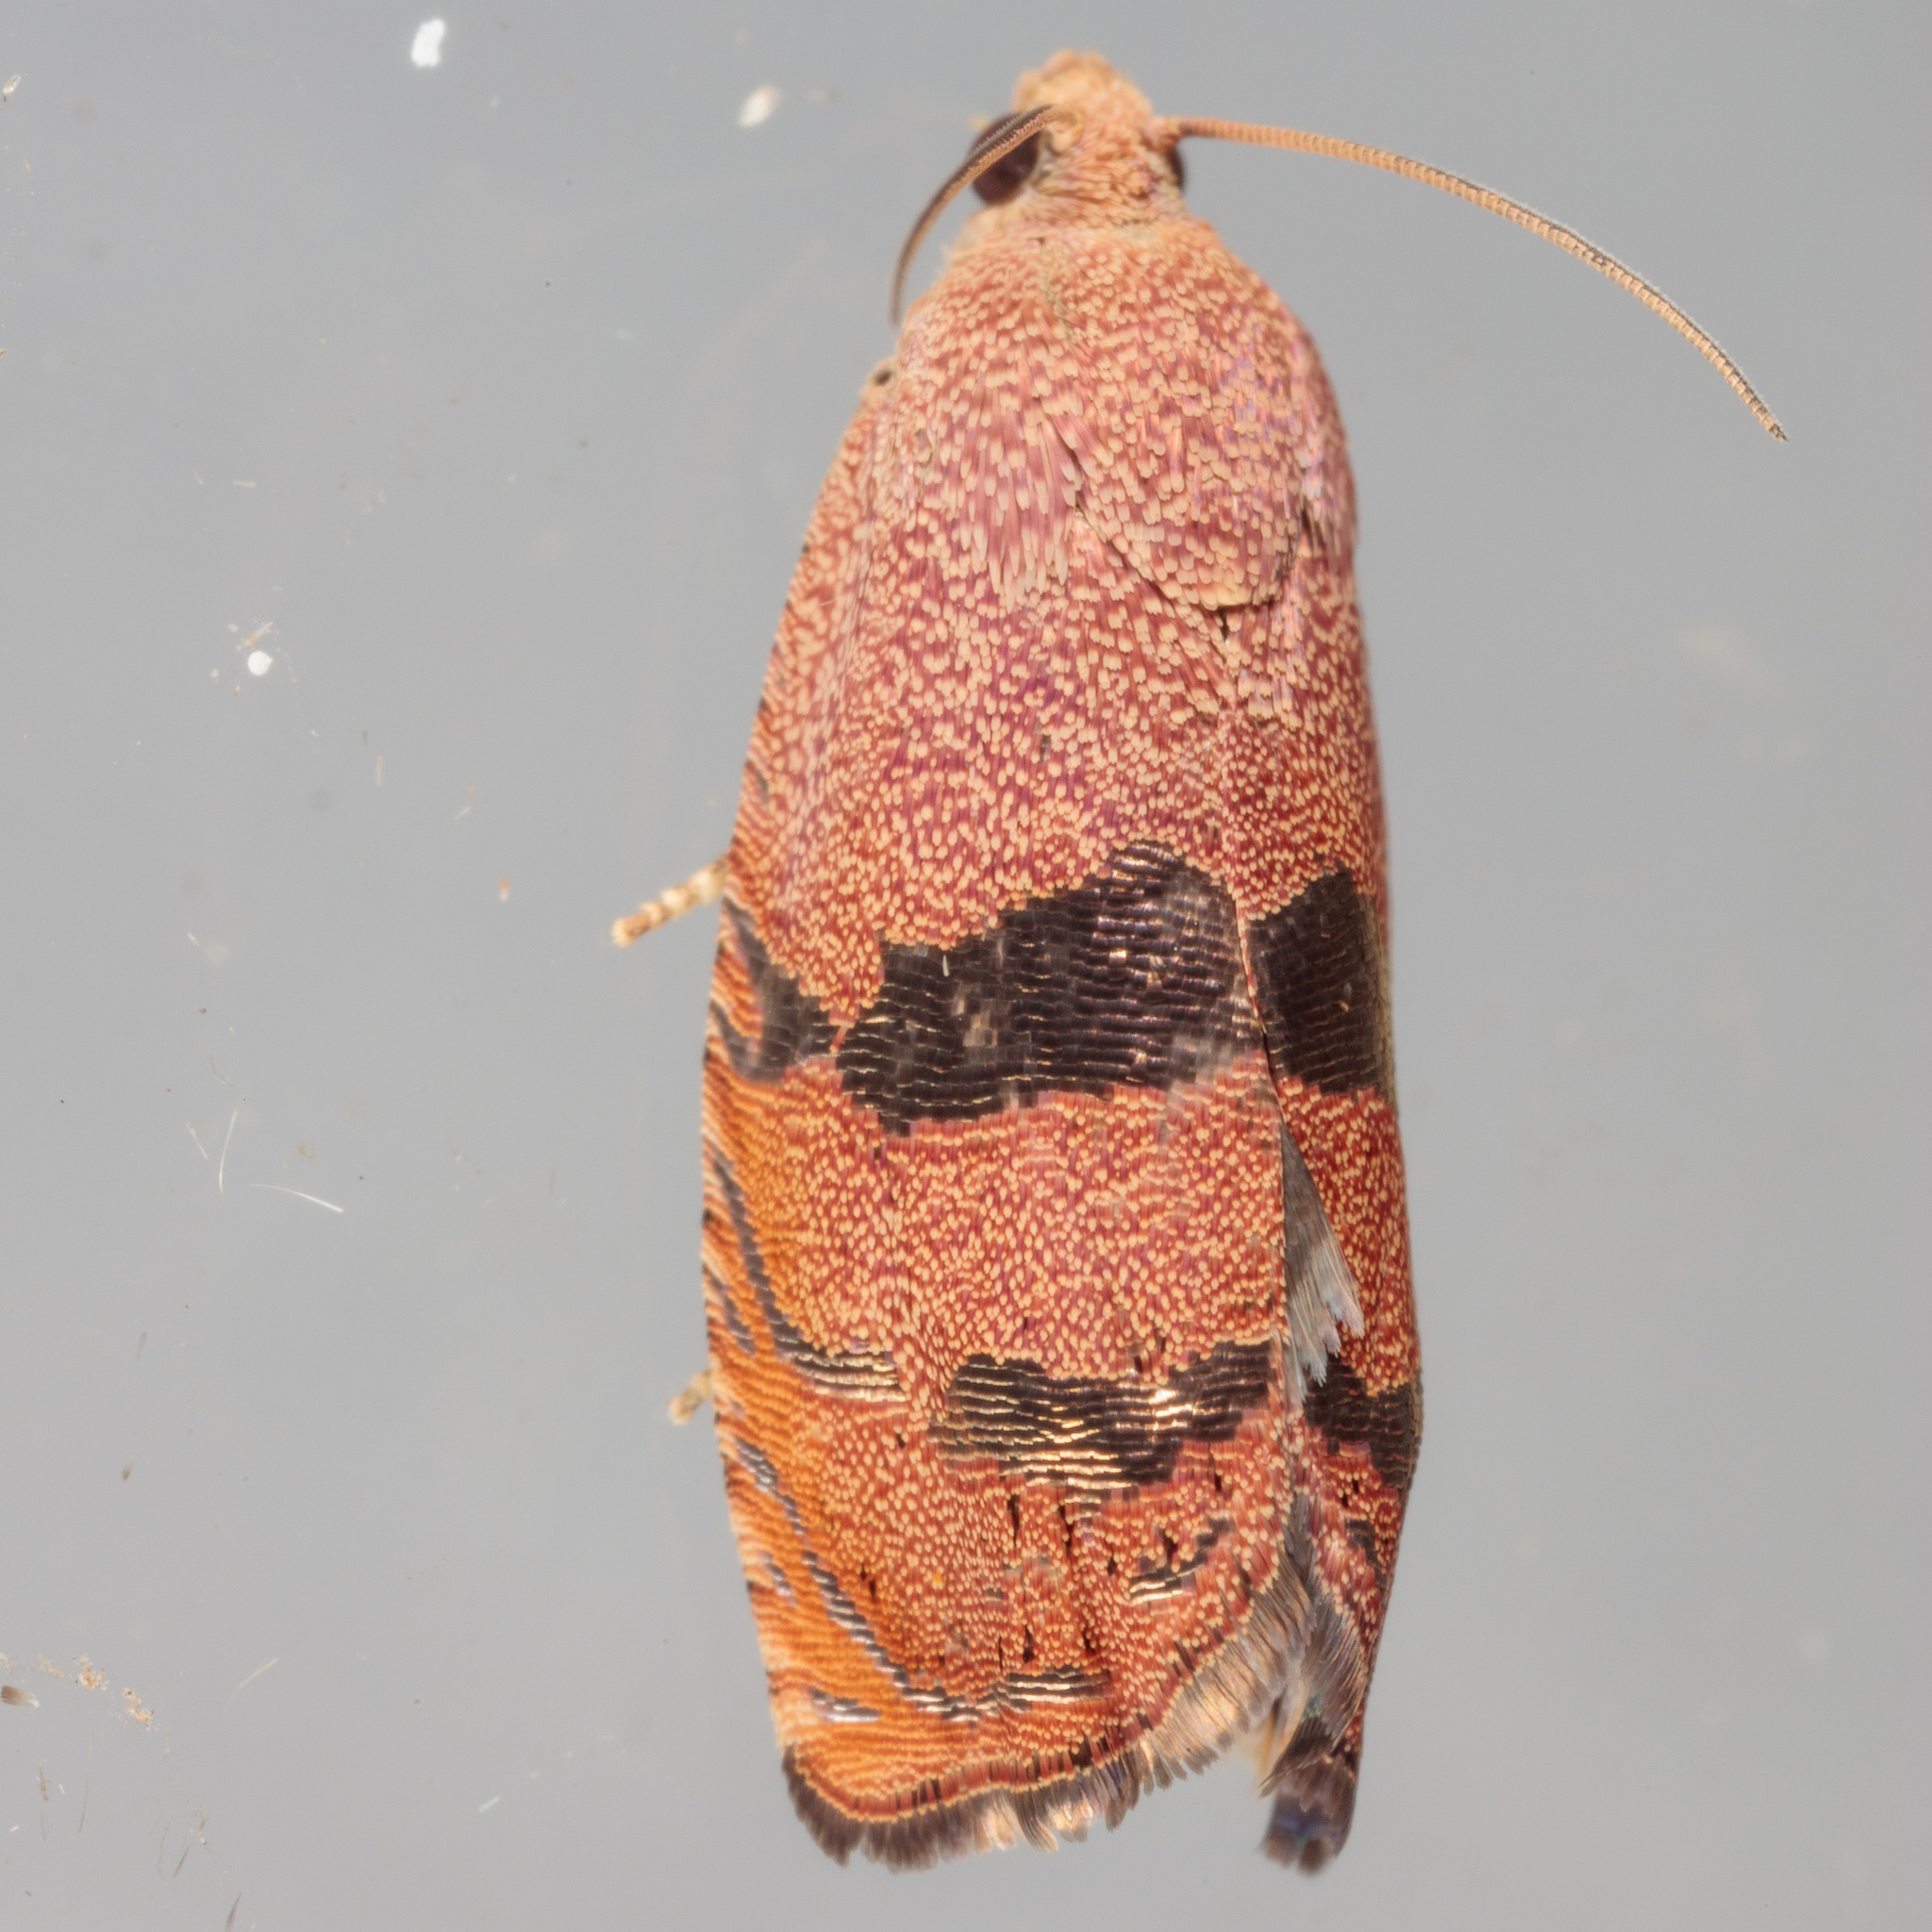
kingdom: Animalia
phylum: Arthropoda
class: Insecta
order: Lepidoptera
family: Tortricidae
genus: Cydia
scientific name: Cydia latiferreana
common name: Filbertworm moth
